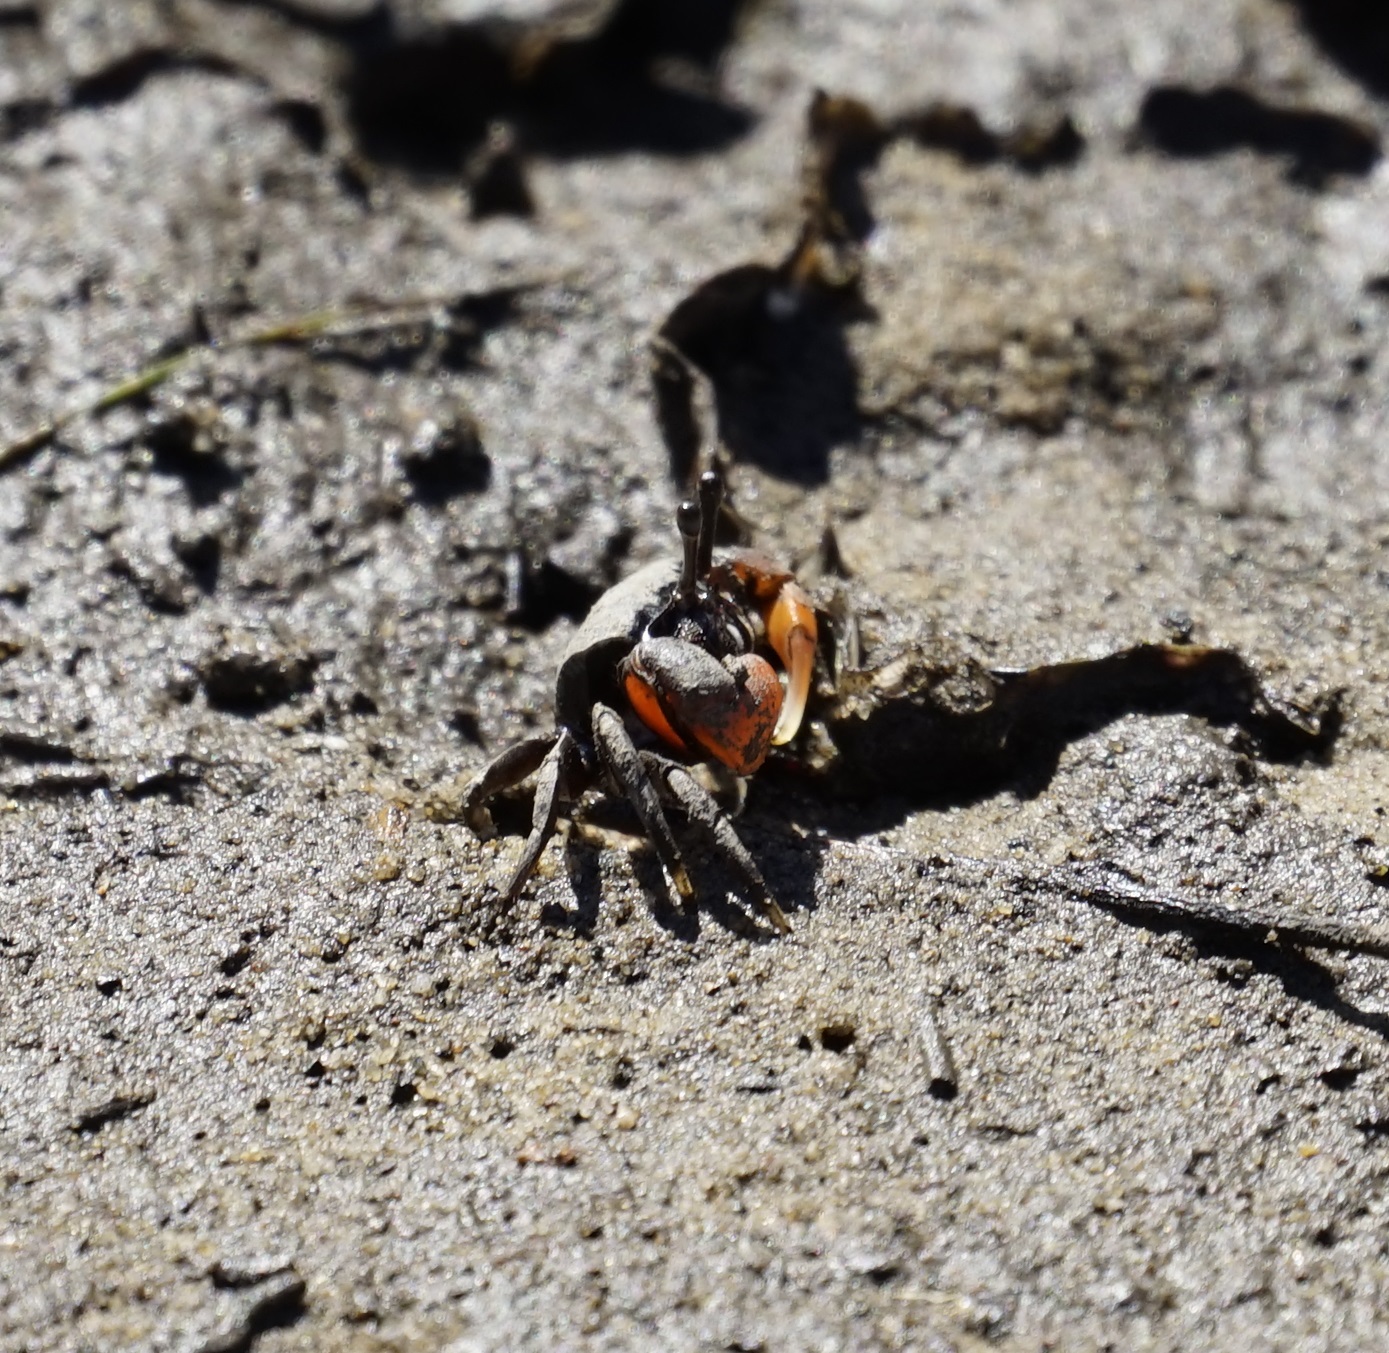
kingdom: Animalia
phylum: Arthropoda
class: Malacostraca
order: Decapoda
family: Heloeciidae
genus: Heloecius
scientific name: Heloecius cordiformis
